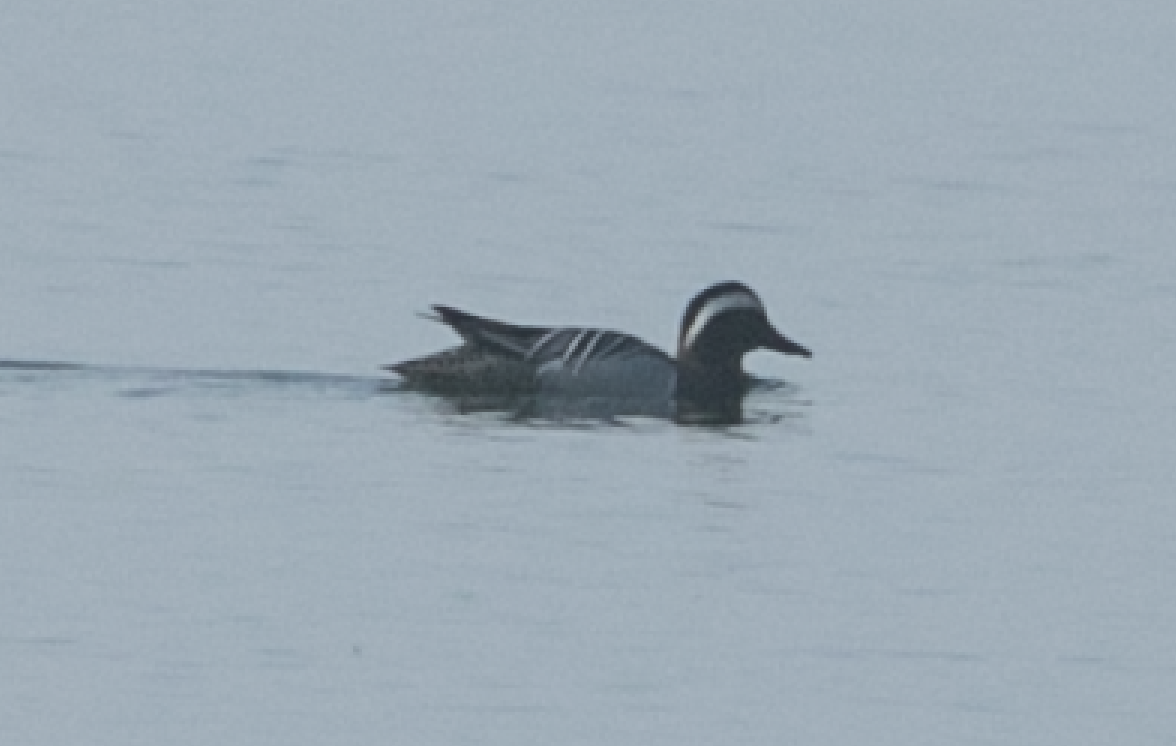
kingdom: Animalia
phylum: Chordata
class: Aves
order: Anseriformes
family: Anatidae
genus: Spatula
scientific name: Spatula querquedula
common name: Garganey
